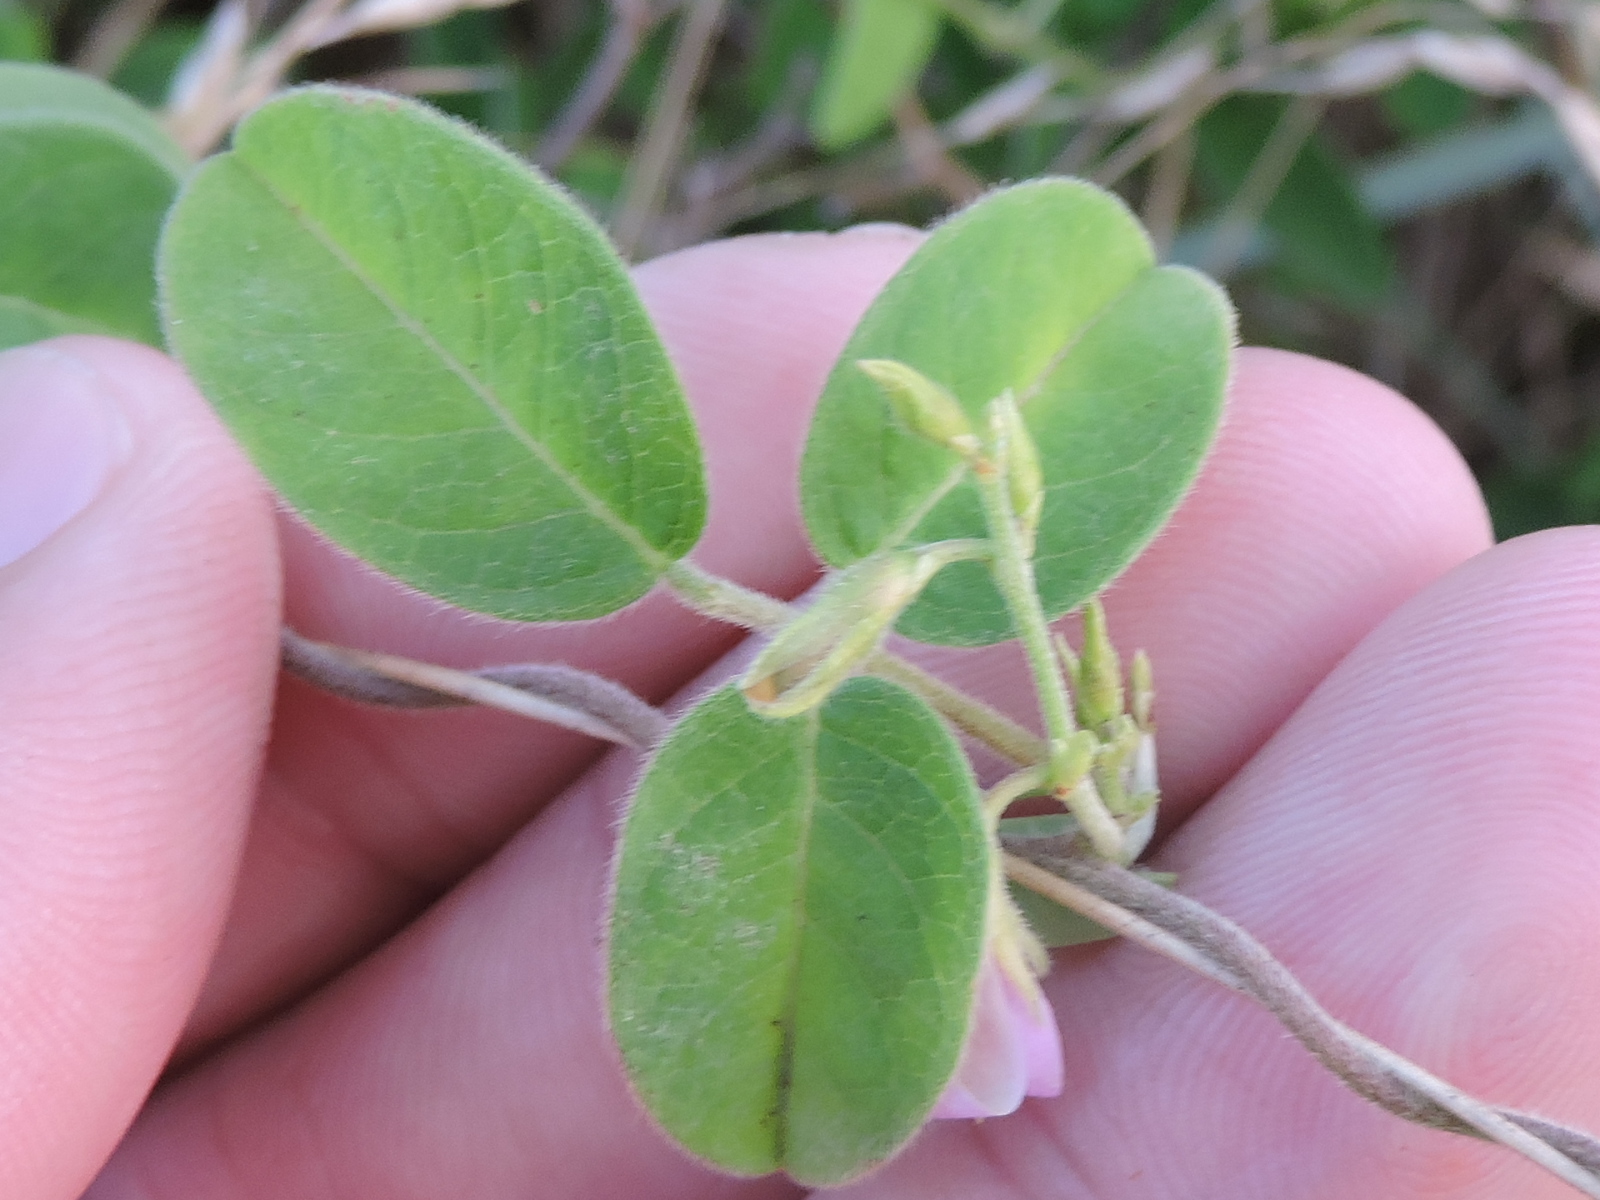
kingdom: Plantae
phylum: Tracheophyta
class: Magnoliopsida
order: Fabales
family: Fabaceae
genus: Galactia
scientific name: Galactia volubilis
